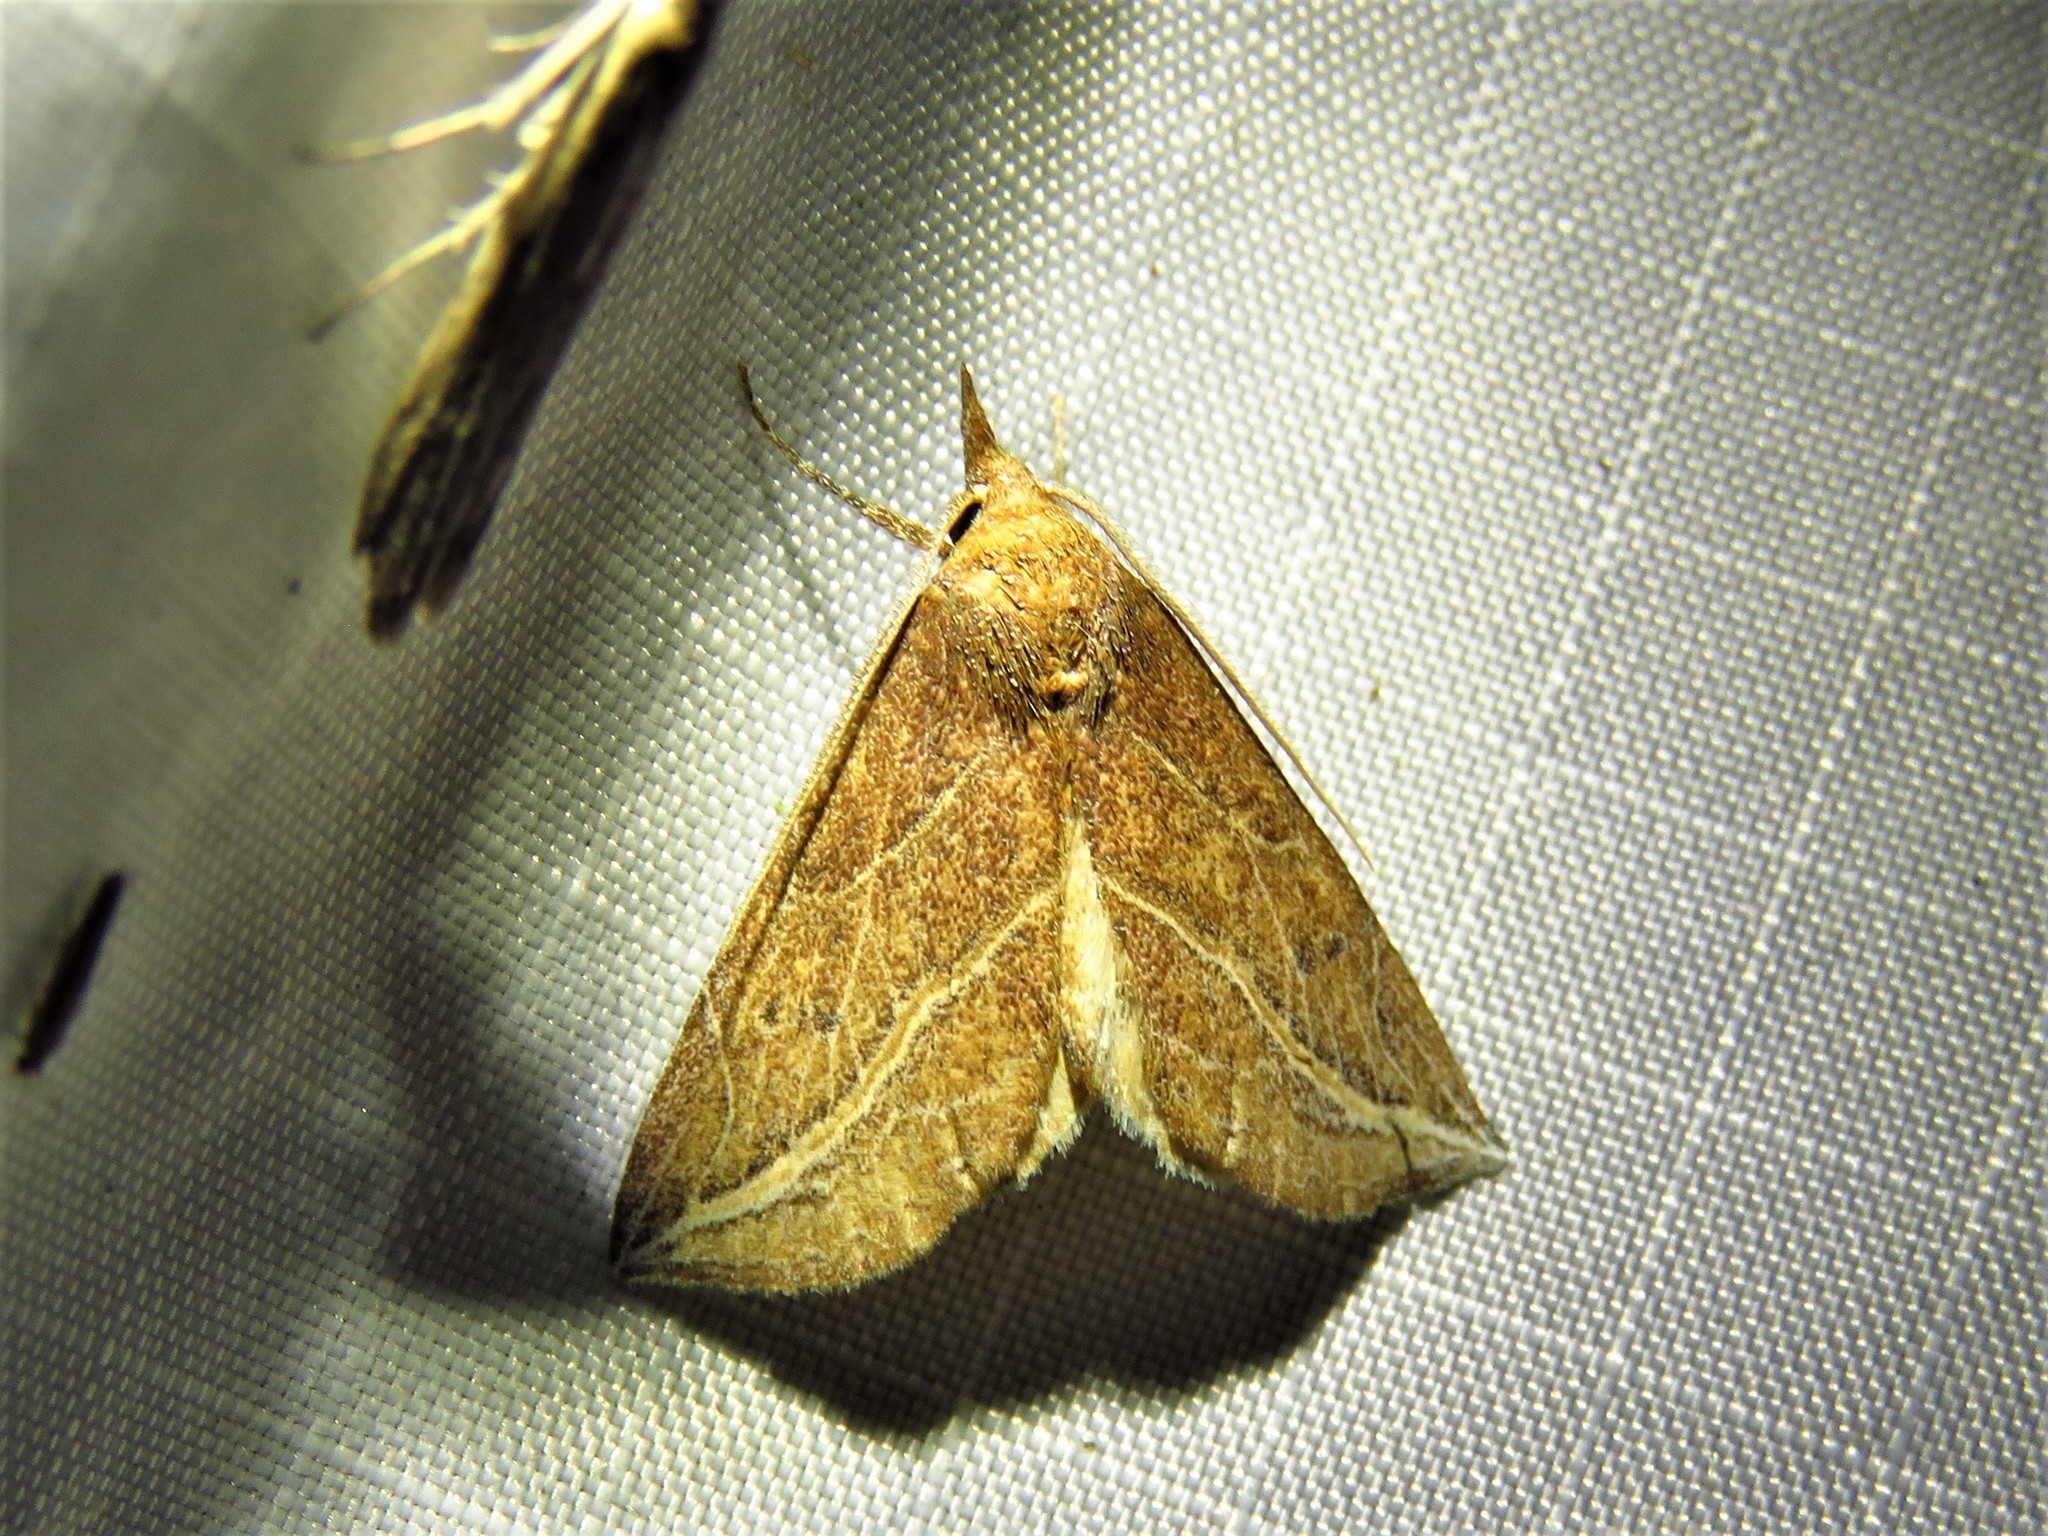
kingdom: Animalia
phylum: Arthropoda
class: Insecta
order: Lepidoptera
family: Erebidae
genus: Phyprosopus
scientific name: Phyprosopus callitrichoides
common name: Curved-lined owlet
